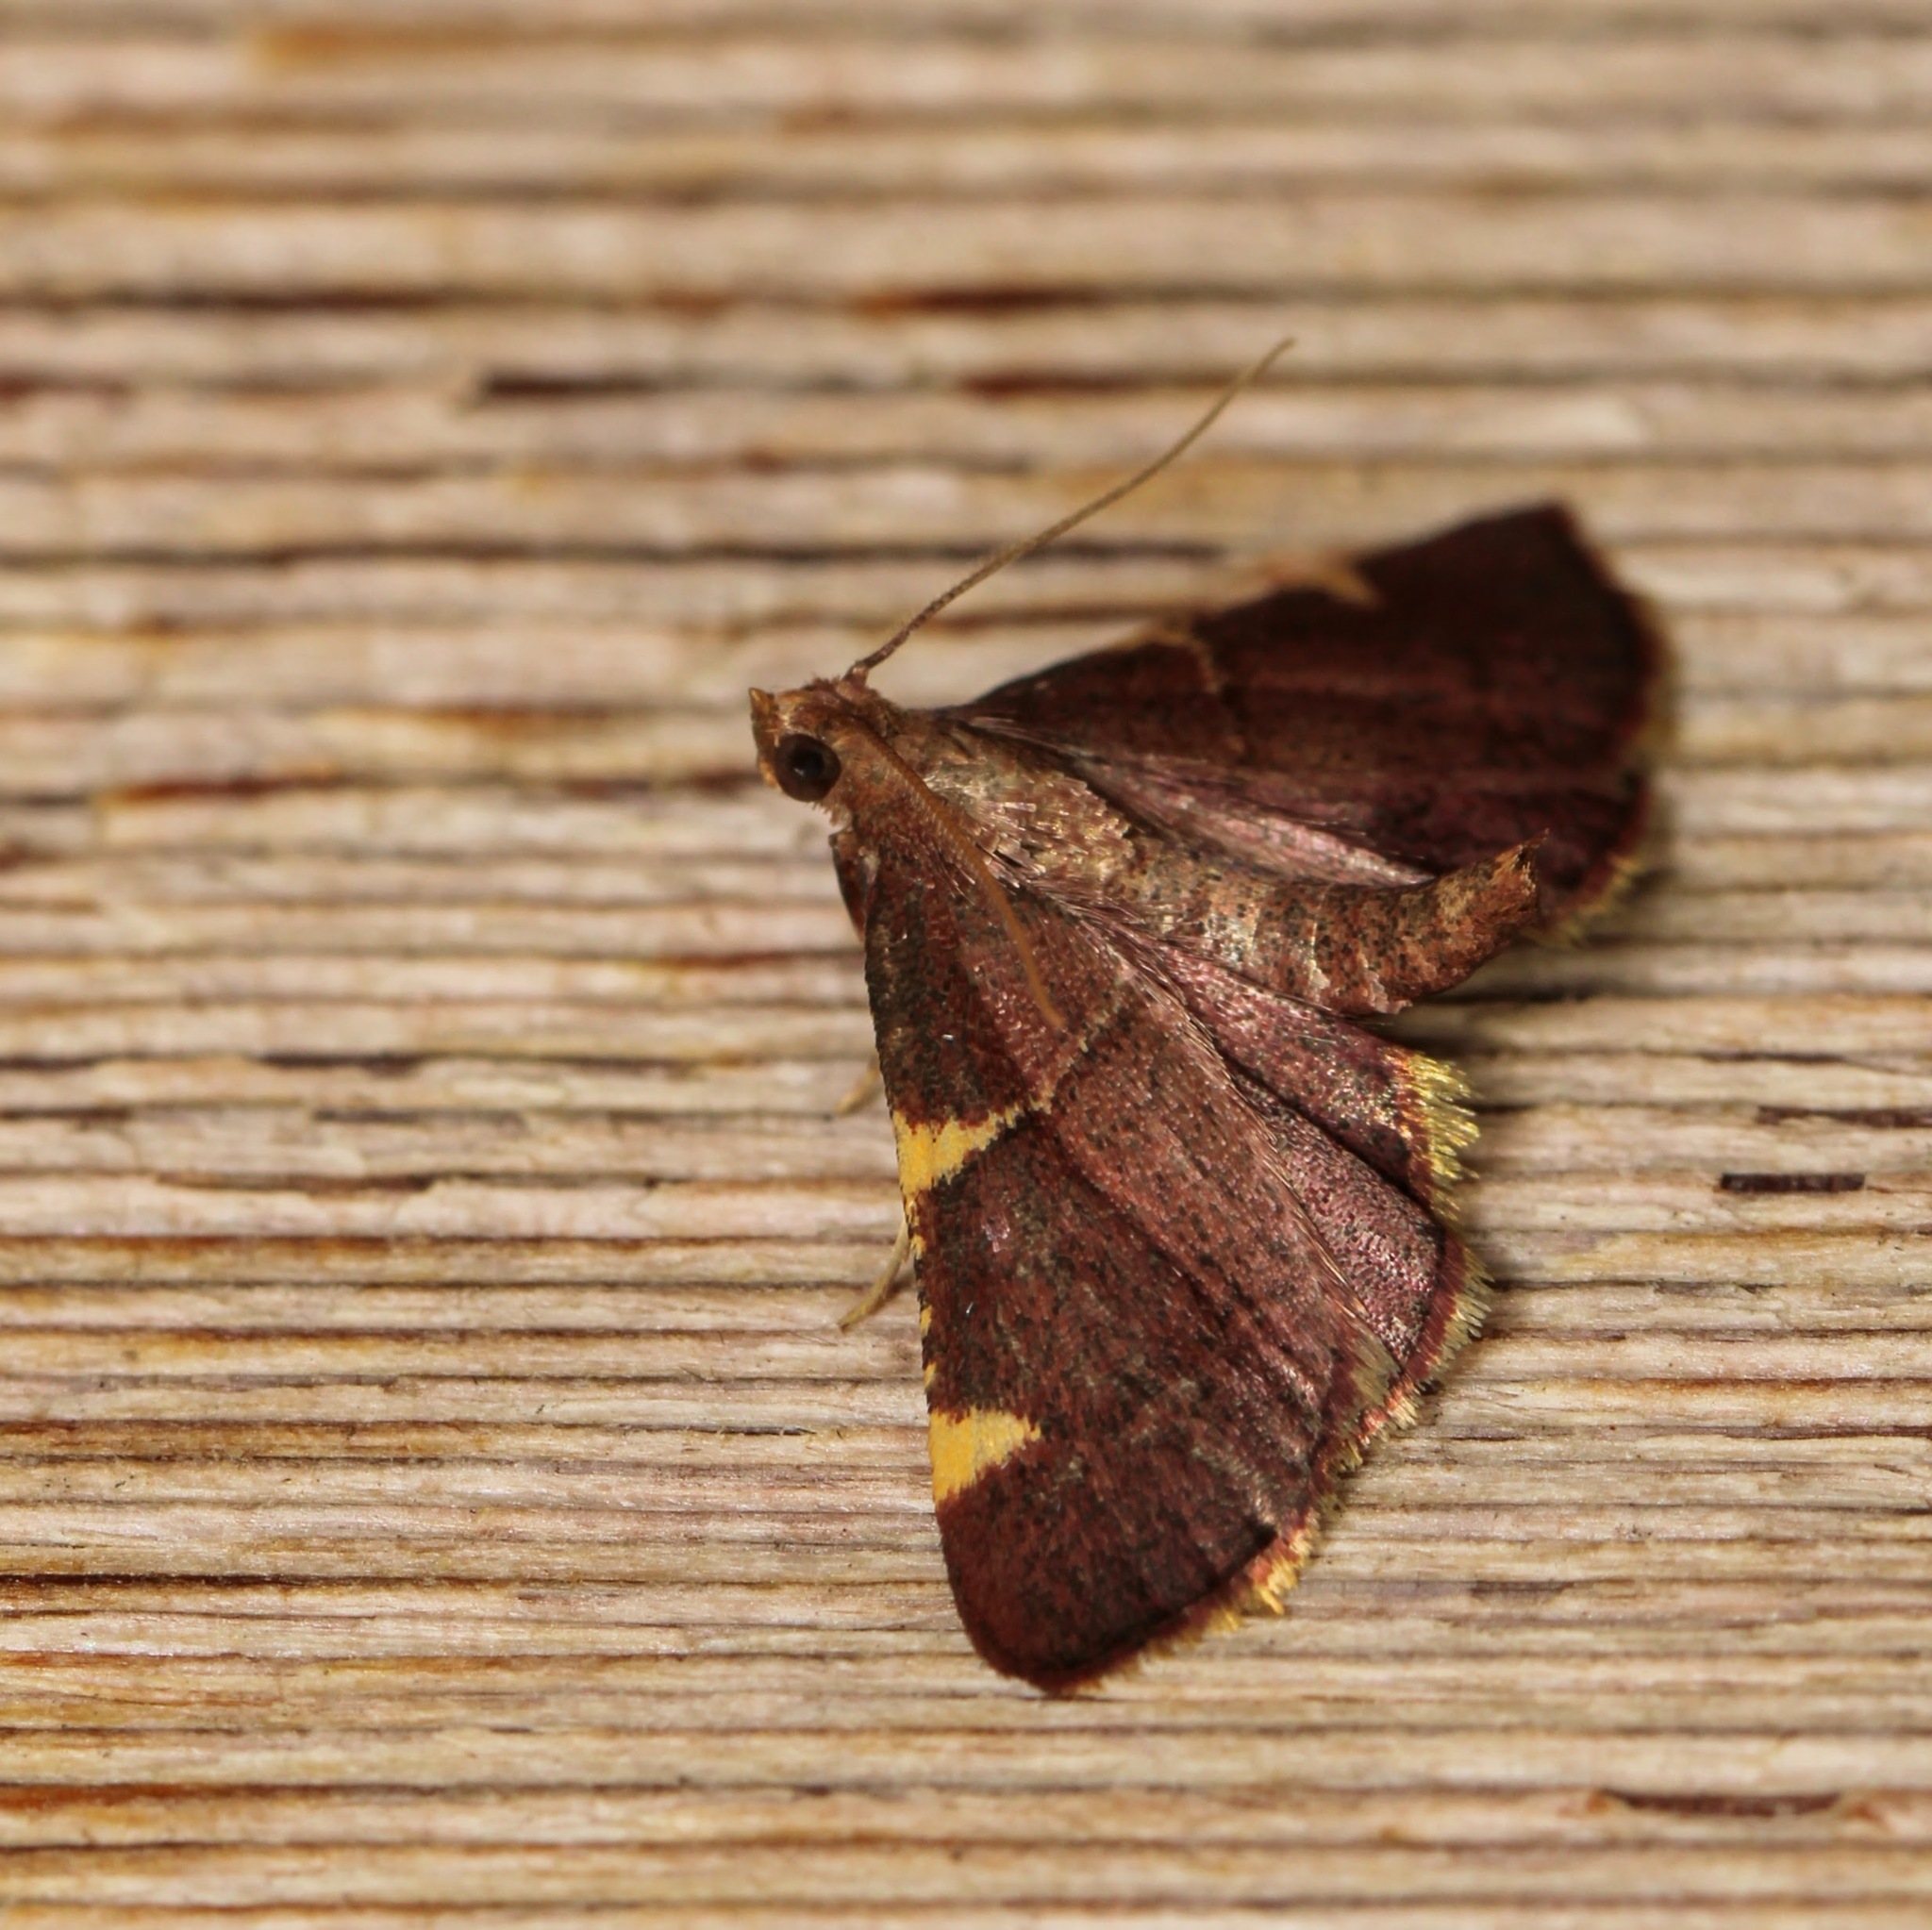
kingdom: Animalia
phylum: Arthropoda
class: Insecta
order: Lepidoptera
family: Pyralidae
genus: Hypsopygia
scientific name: Hypsopygia olinalis
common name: Yellow-fringed dolichomia moth
